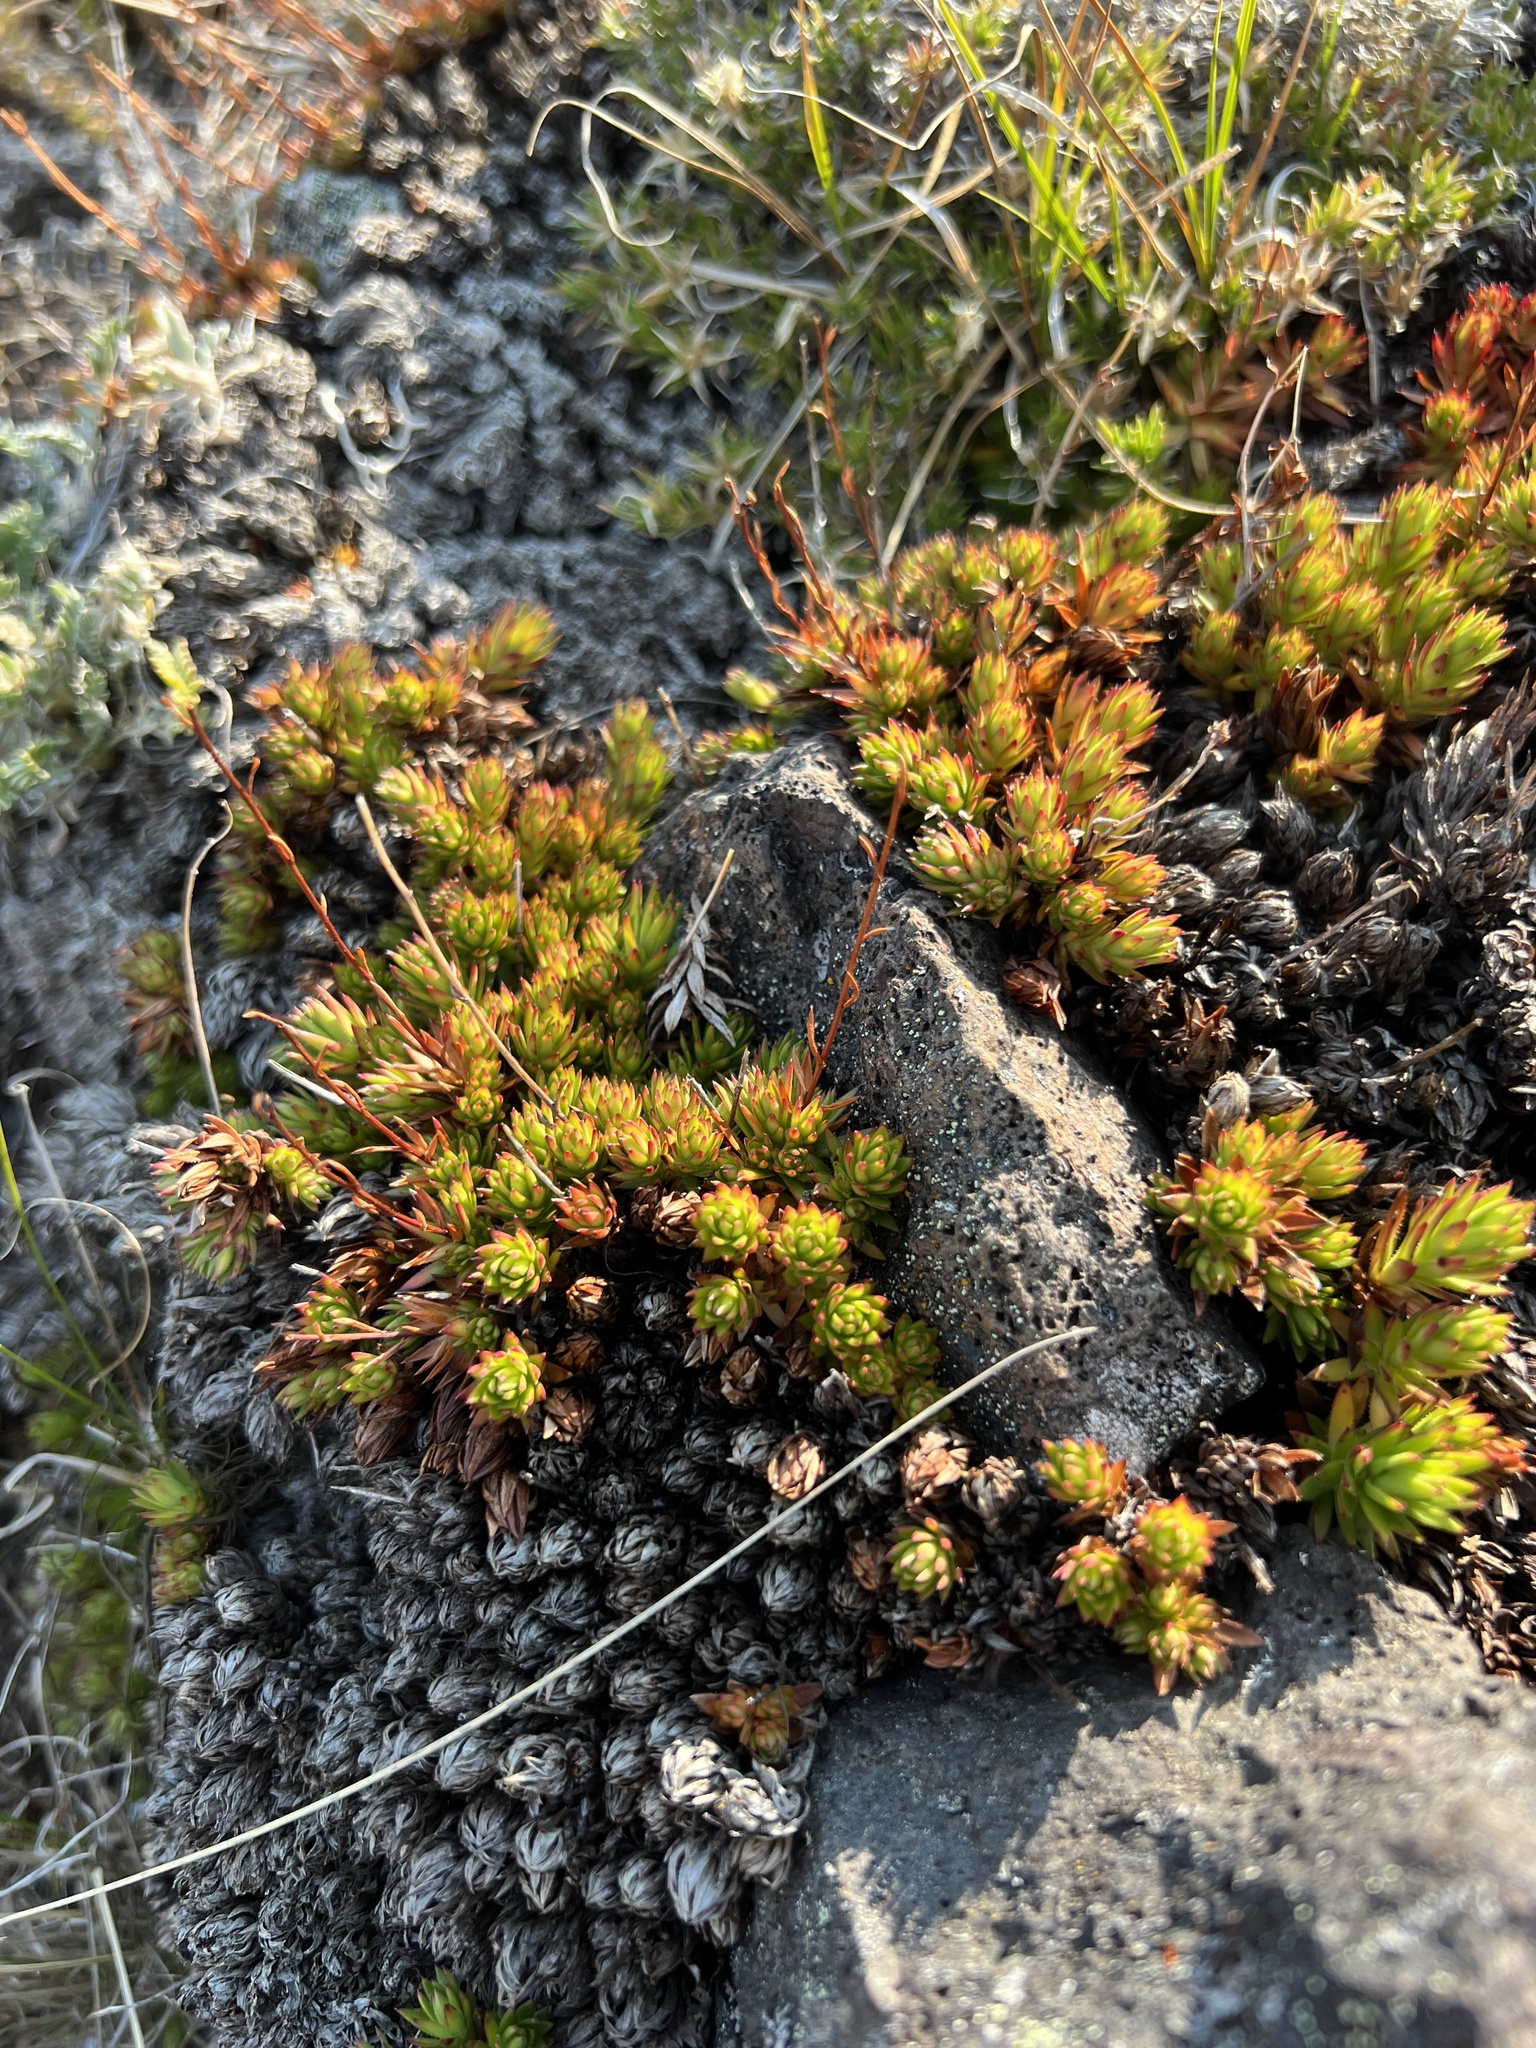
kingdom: Plantae
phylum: Tracheophyta
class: Magnoliopsida
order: Saxifragales
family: Saxifragaceae
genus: Saxifraga
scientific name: Saxifraga bronchialis
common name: Matted saxifrage
